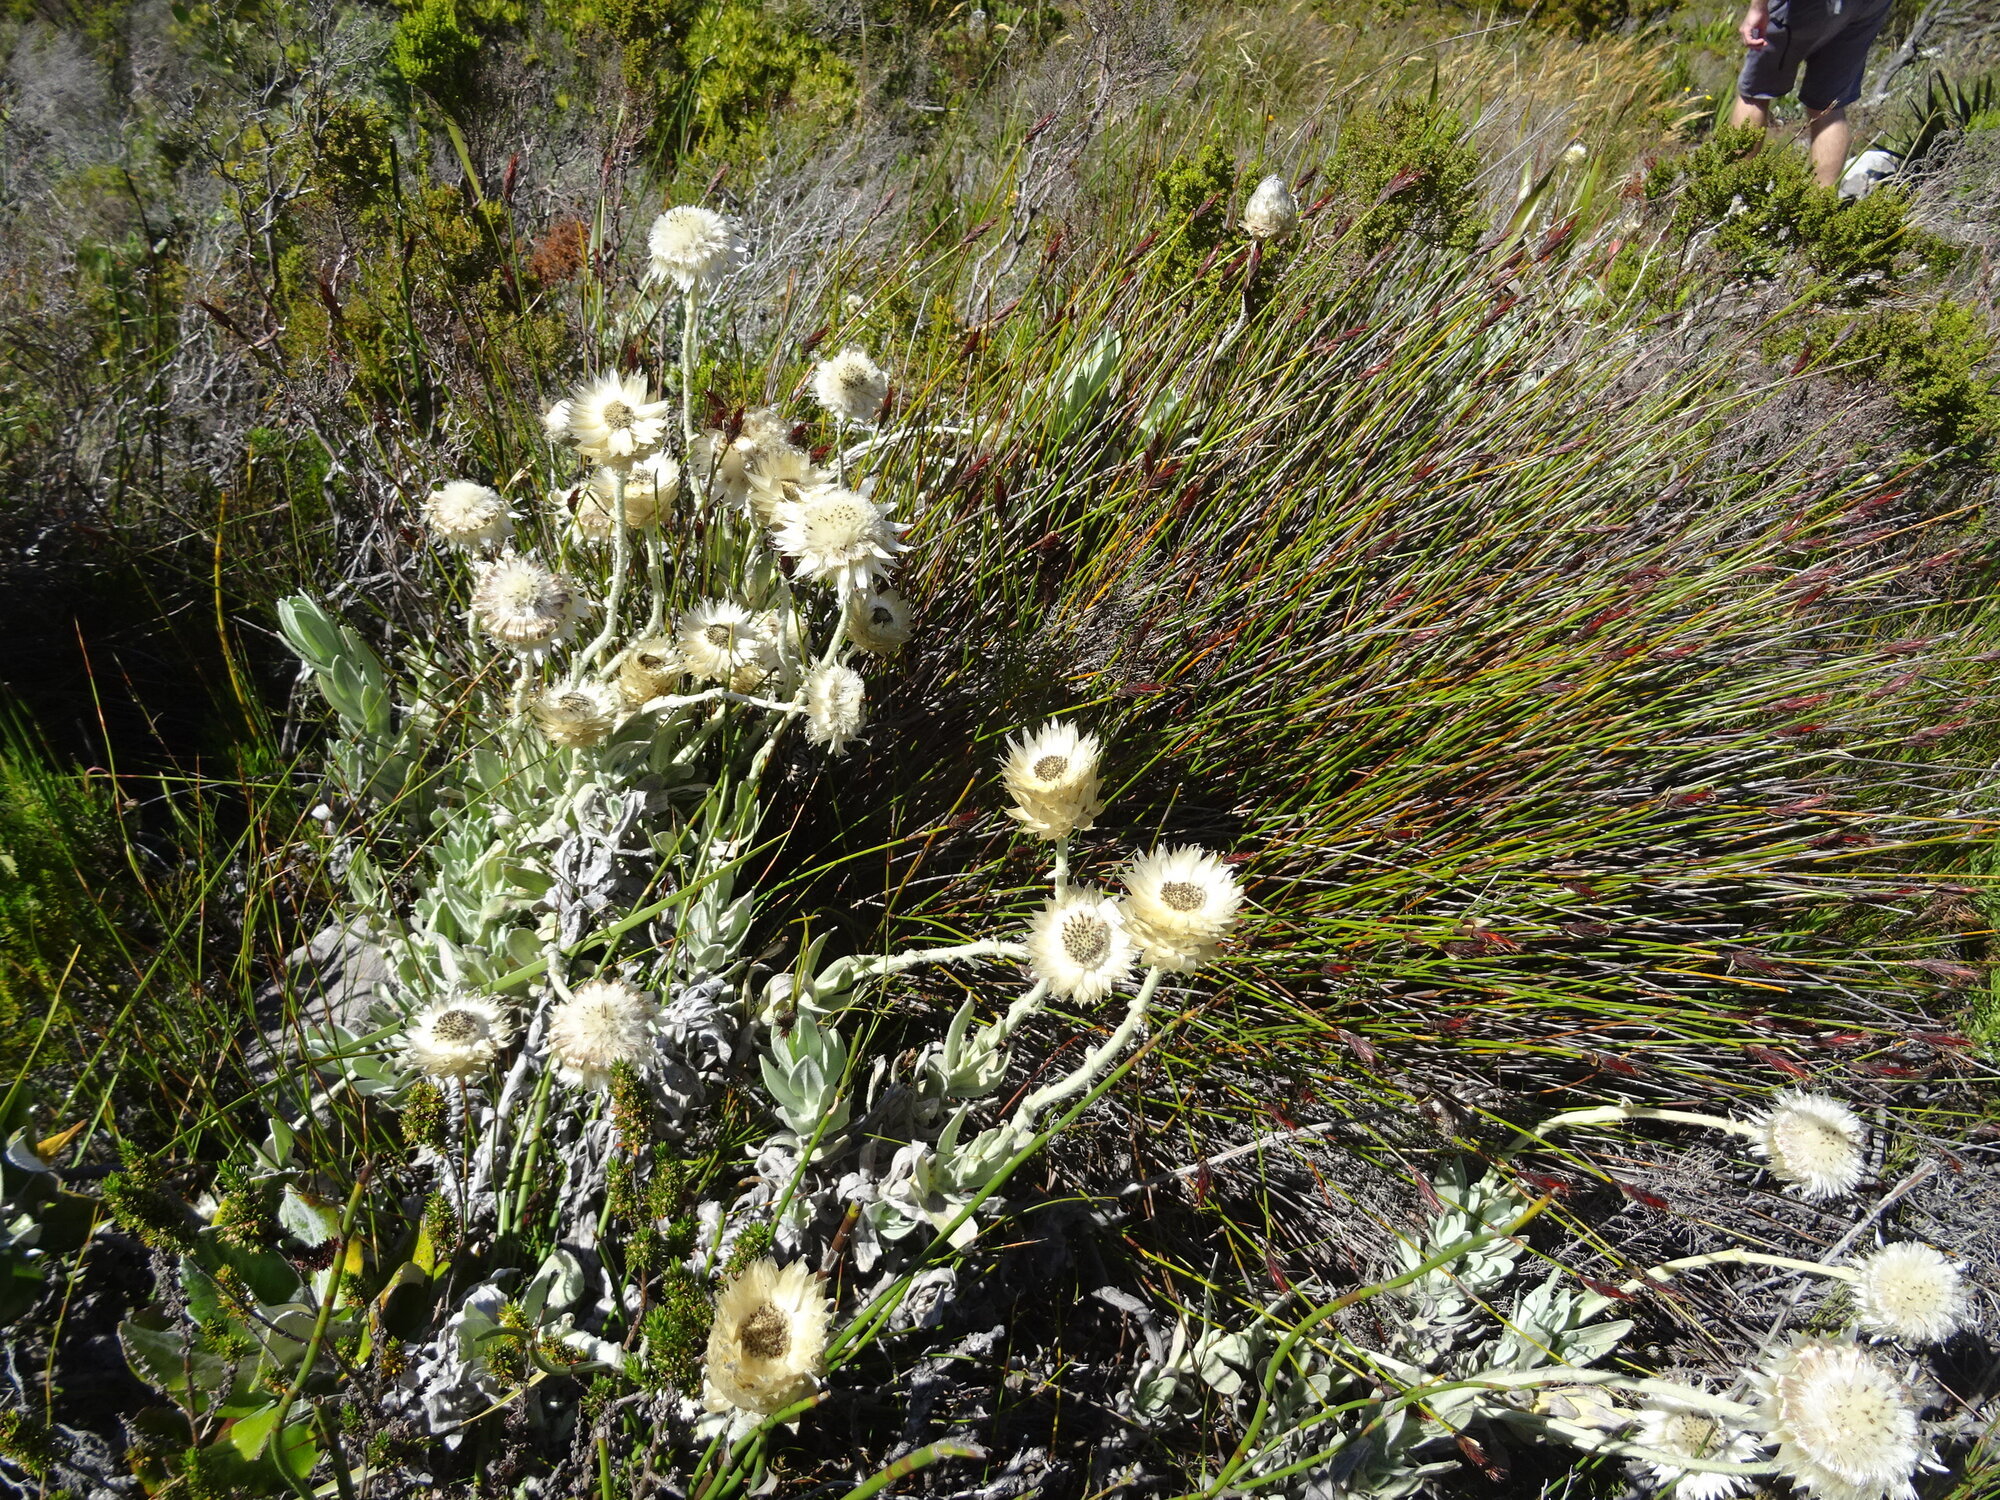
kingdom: Plantae
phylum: Tracheophyta
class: Magnoliopsida
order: Asterales
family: Asteraceae
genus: Syncarpha
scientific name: Syncarpha speciosissima
